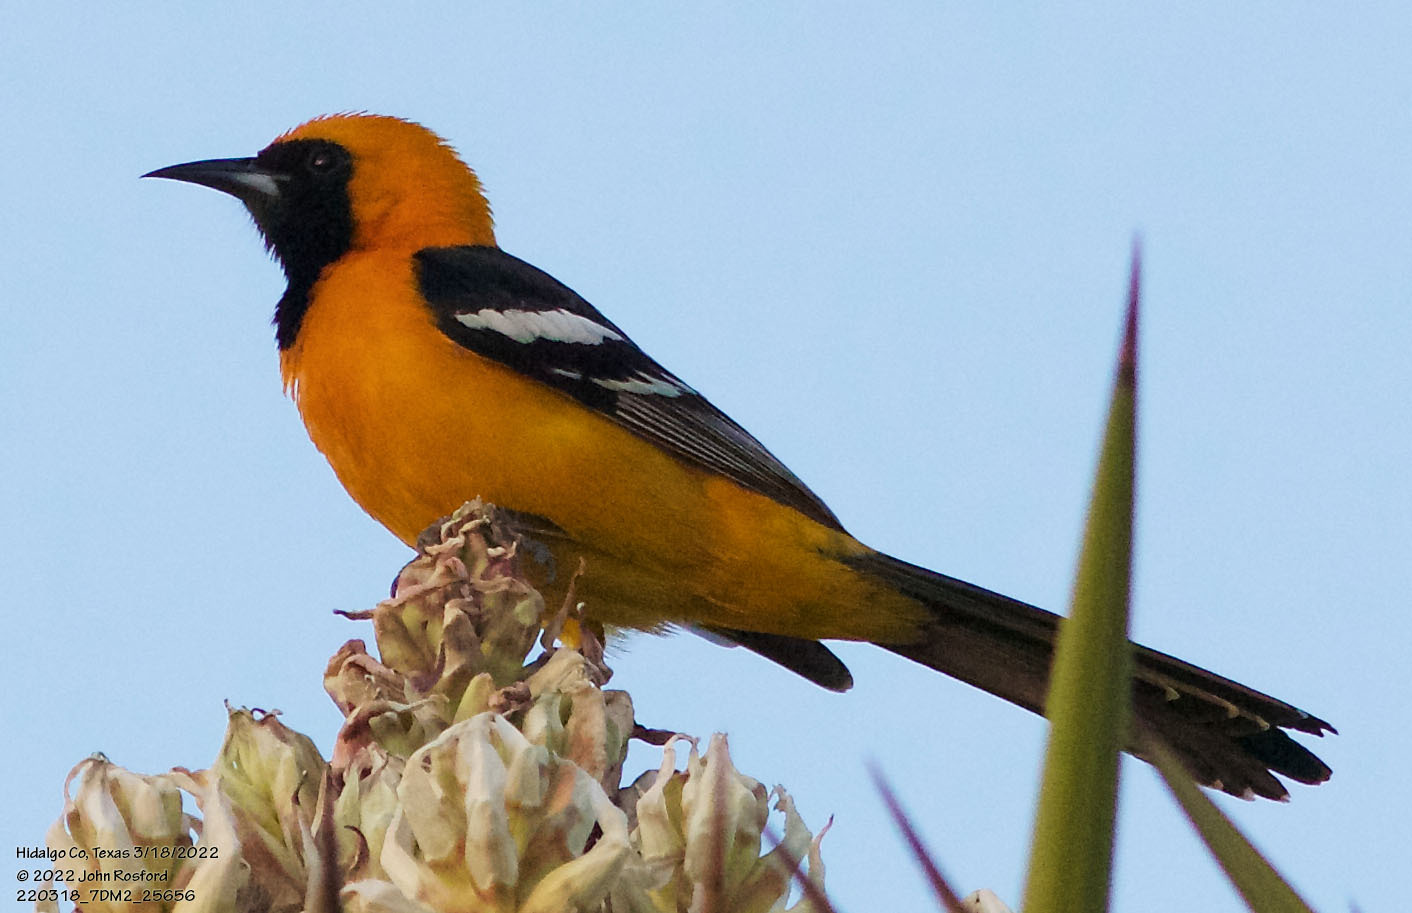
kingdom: Animalia
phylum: Chordata
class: Aves
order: Passeriformes
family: Icteridae
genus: Icterus
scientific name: Icterus cucullatus
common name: Hooded oriole
